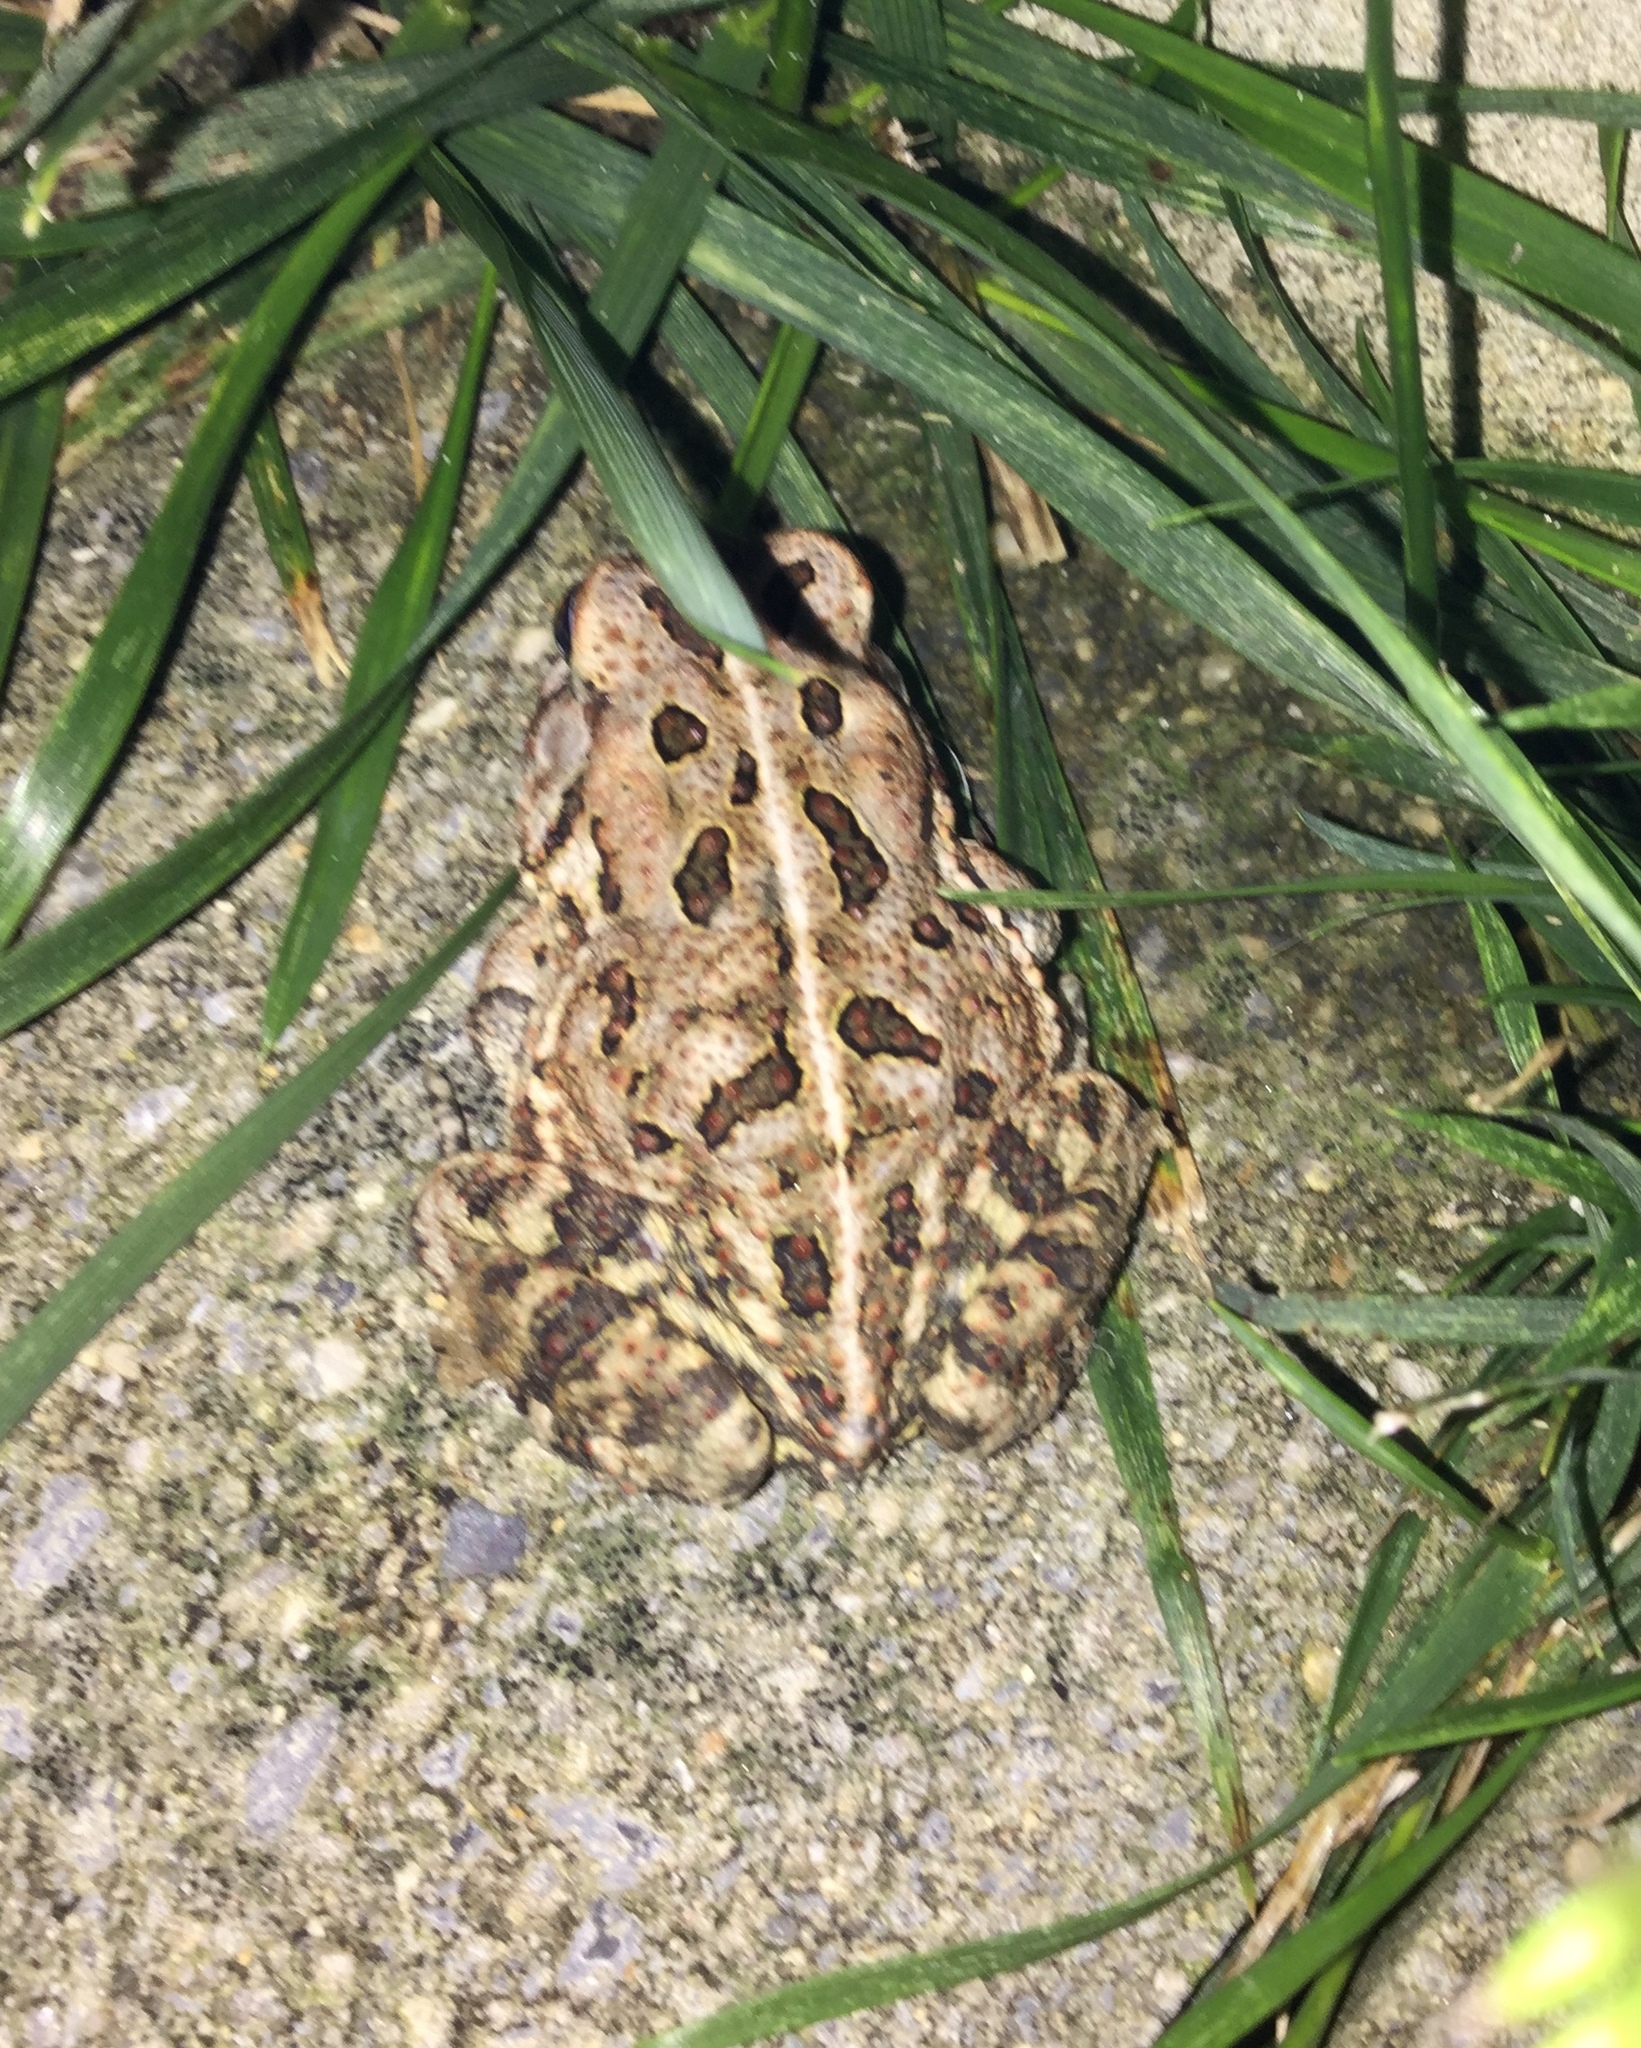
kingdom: Animalia
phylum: Chordata
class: Amphibia
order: Anura
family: Bufonidae
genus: Anaxyrus
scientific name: Anaxyrus fowleri
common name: Fowler's toad
